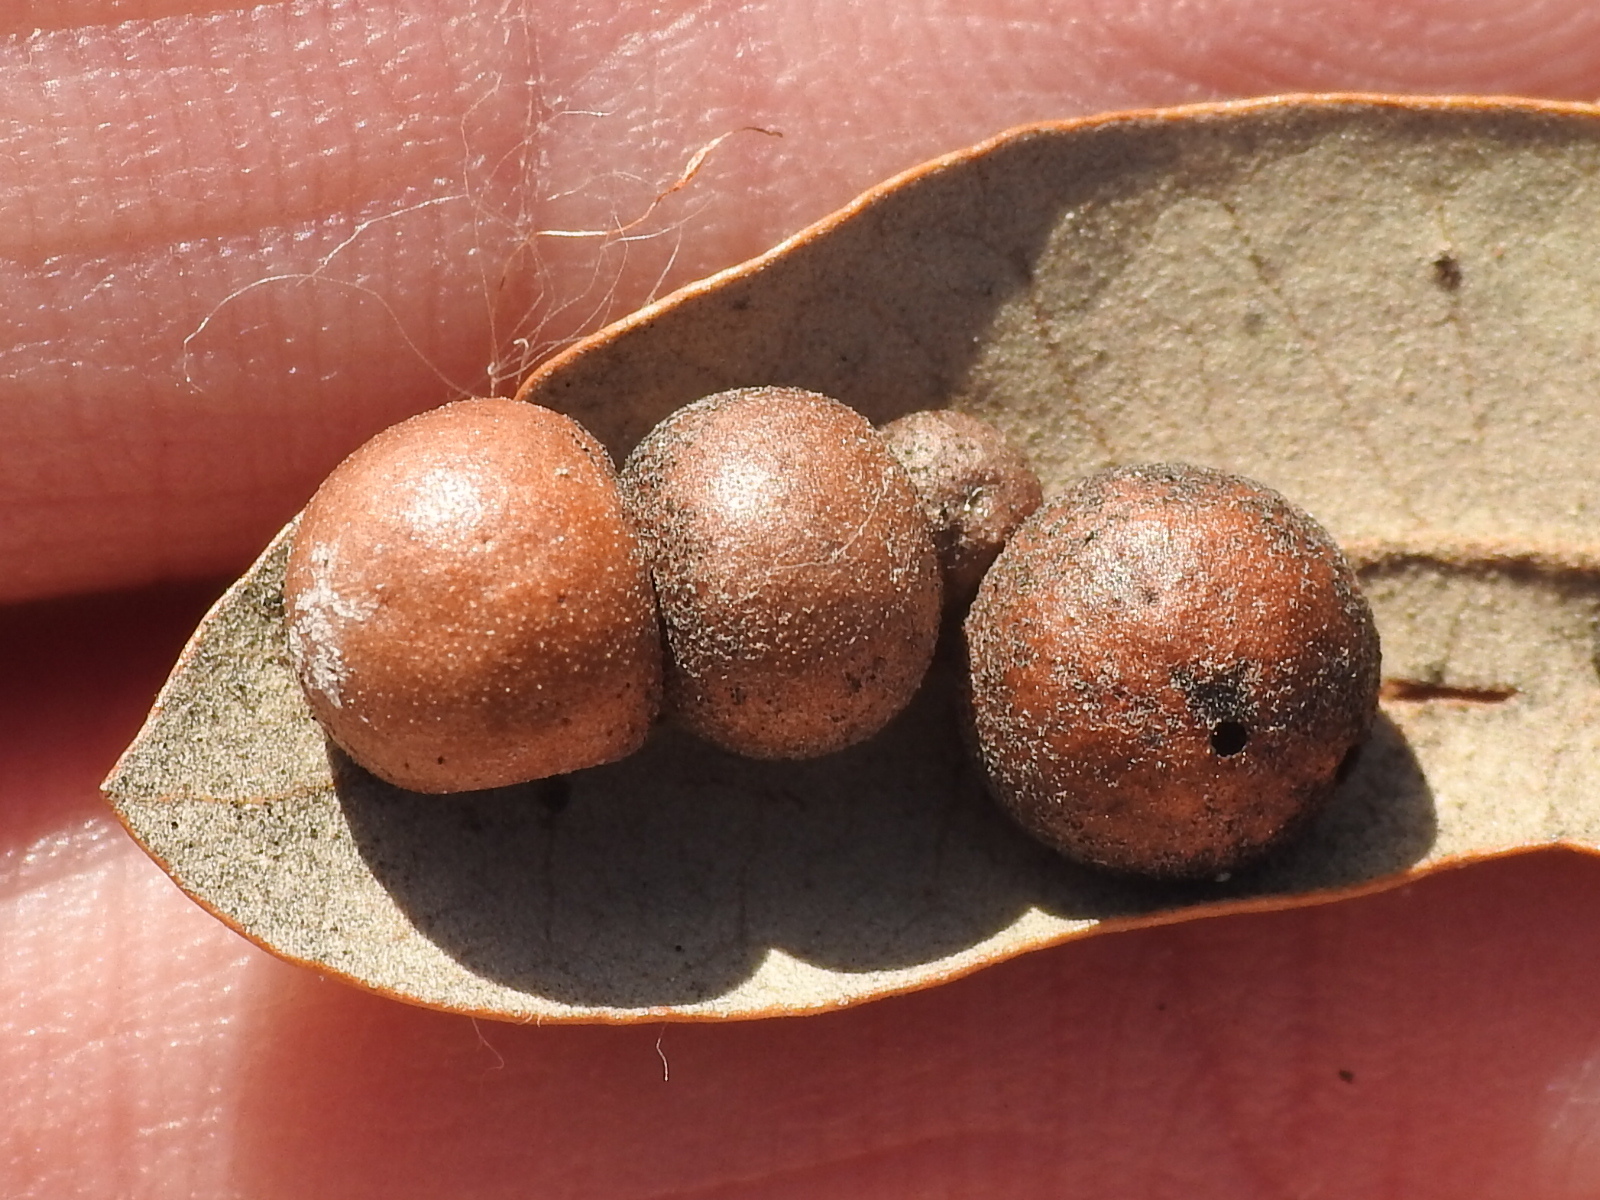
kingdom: Animalia
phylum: Arthropoda
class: Insecta
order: Hymenoptera
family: Cynipidae
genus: Belonocnema
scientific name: Belonocnema kinseyi
